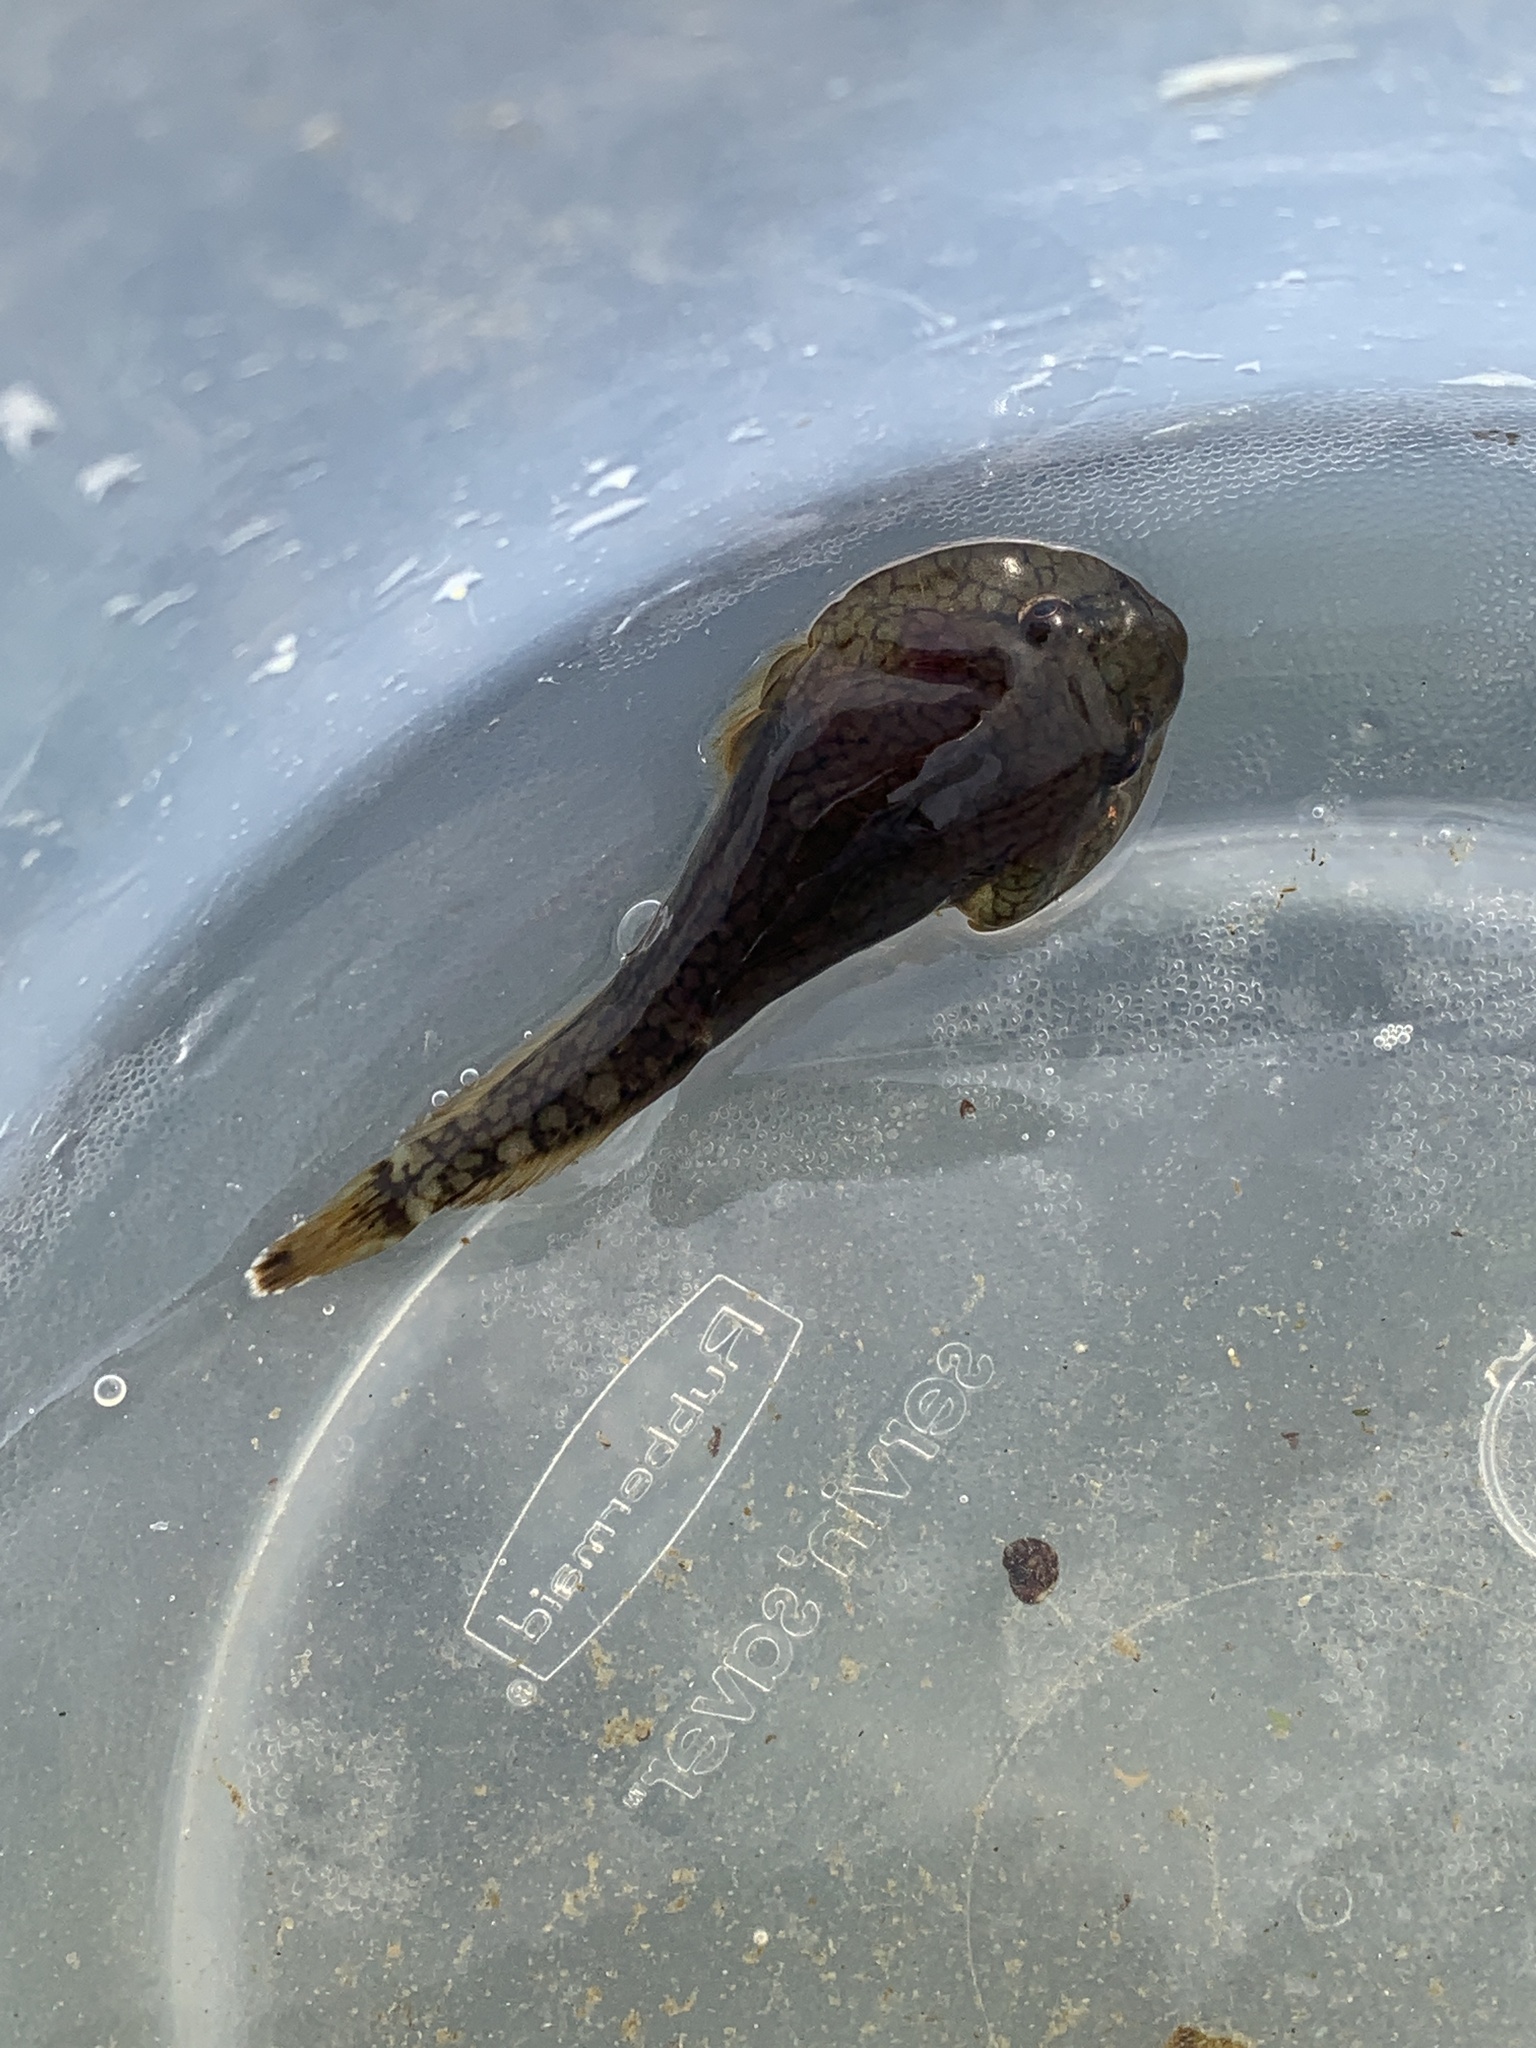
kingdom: Animalia
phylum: Chordata
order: Gobiesociformes
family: Gobiesocidae
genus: Gobiesox
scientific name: Gobiesox maeandricus
